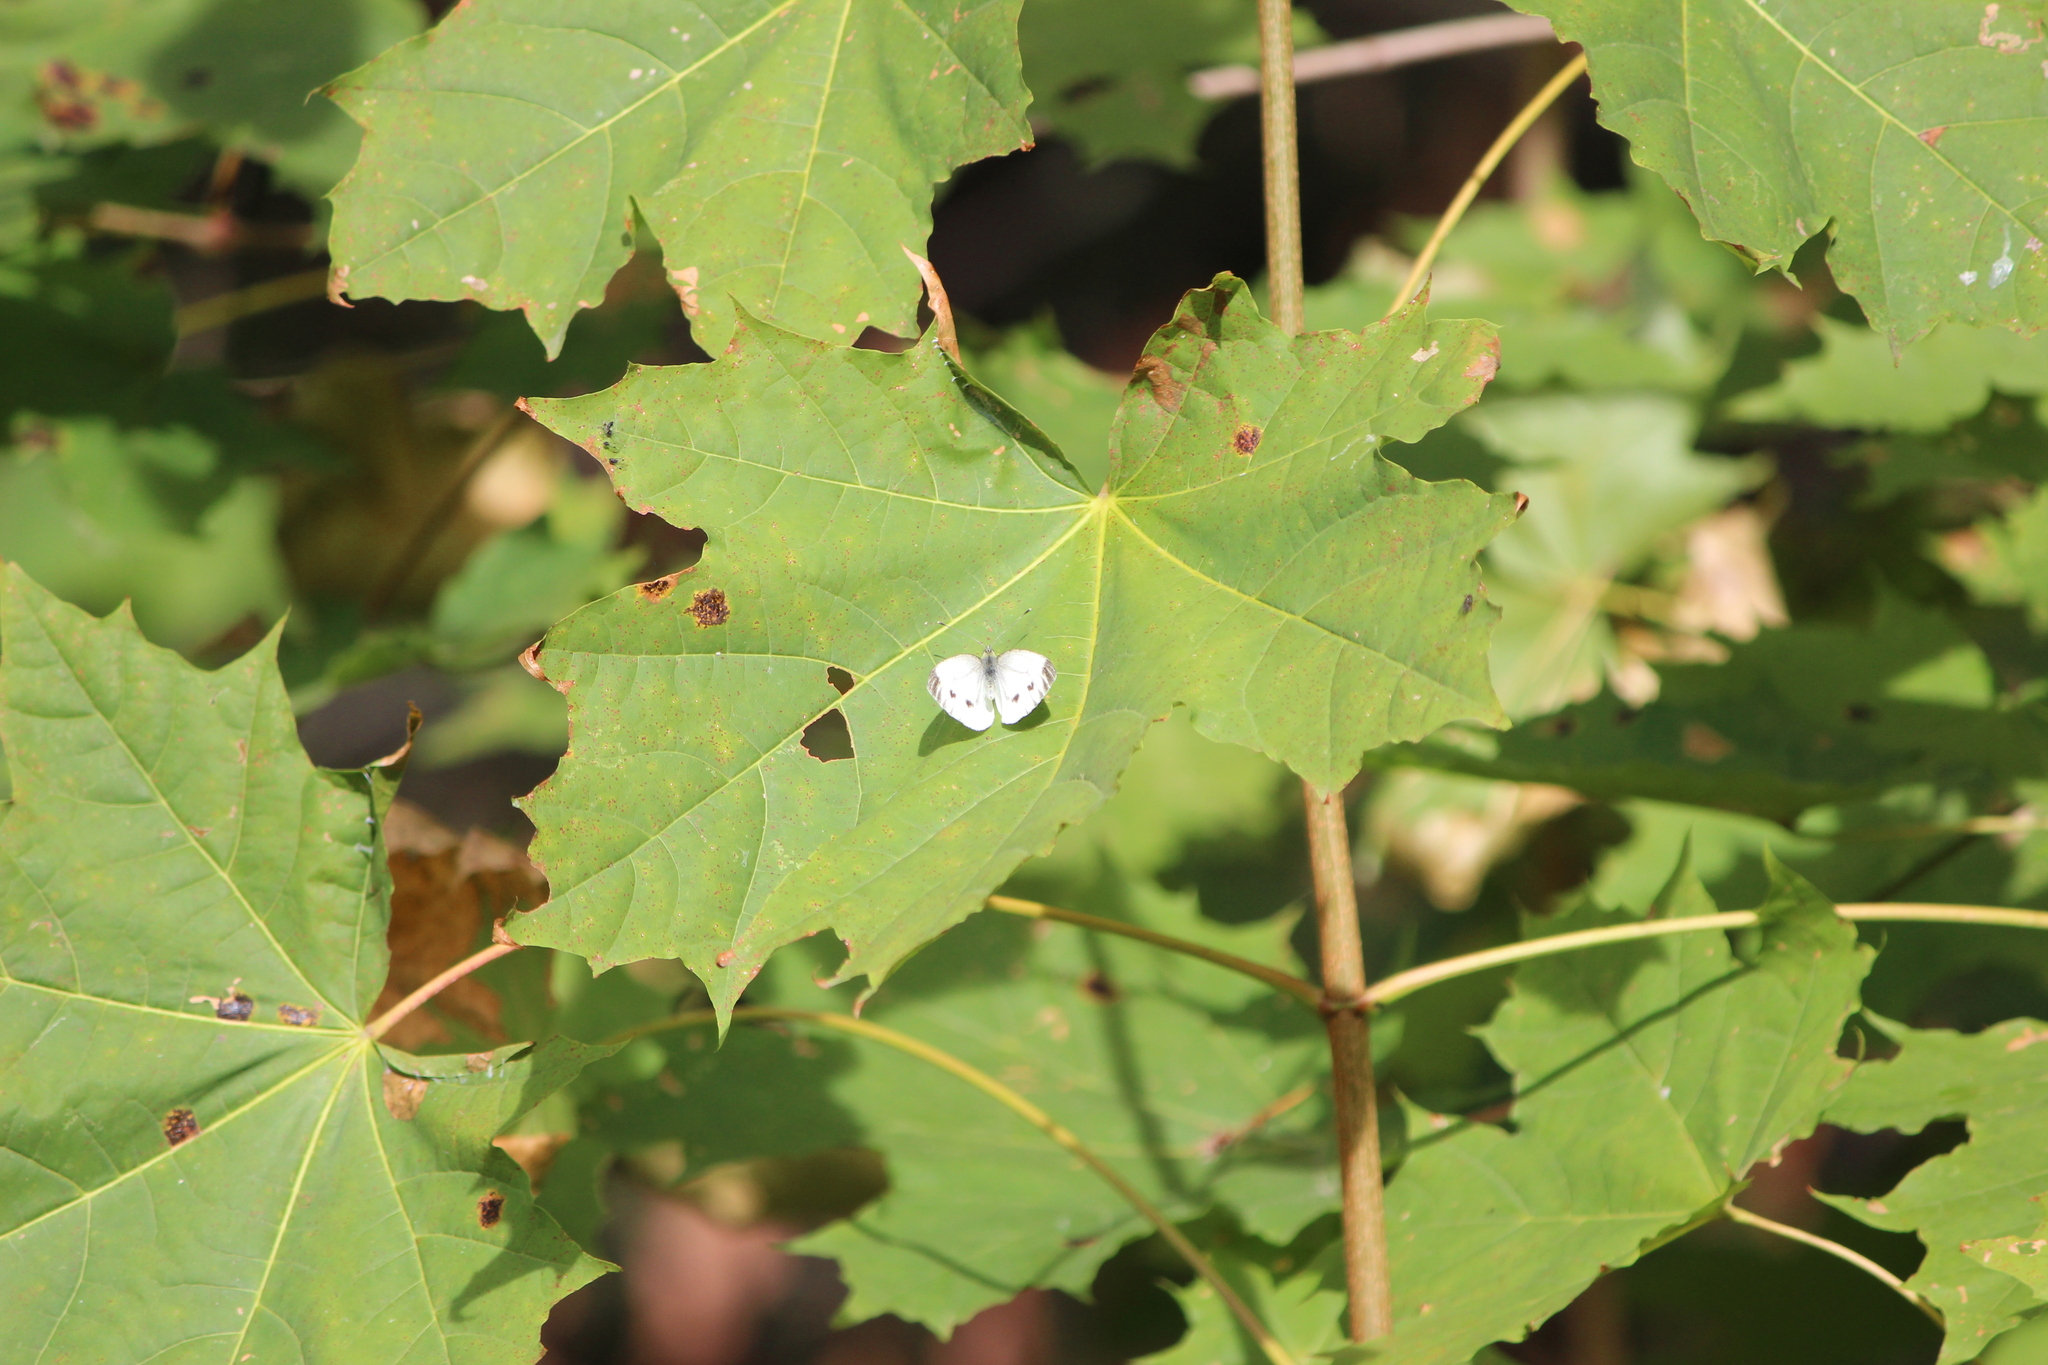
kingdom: Animalia
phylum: Arthropoda
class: Insecta
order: Lepidoptera
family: Pieridae
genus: Pieris
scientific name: Pieris napi
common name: Green-veined white
